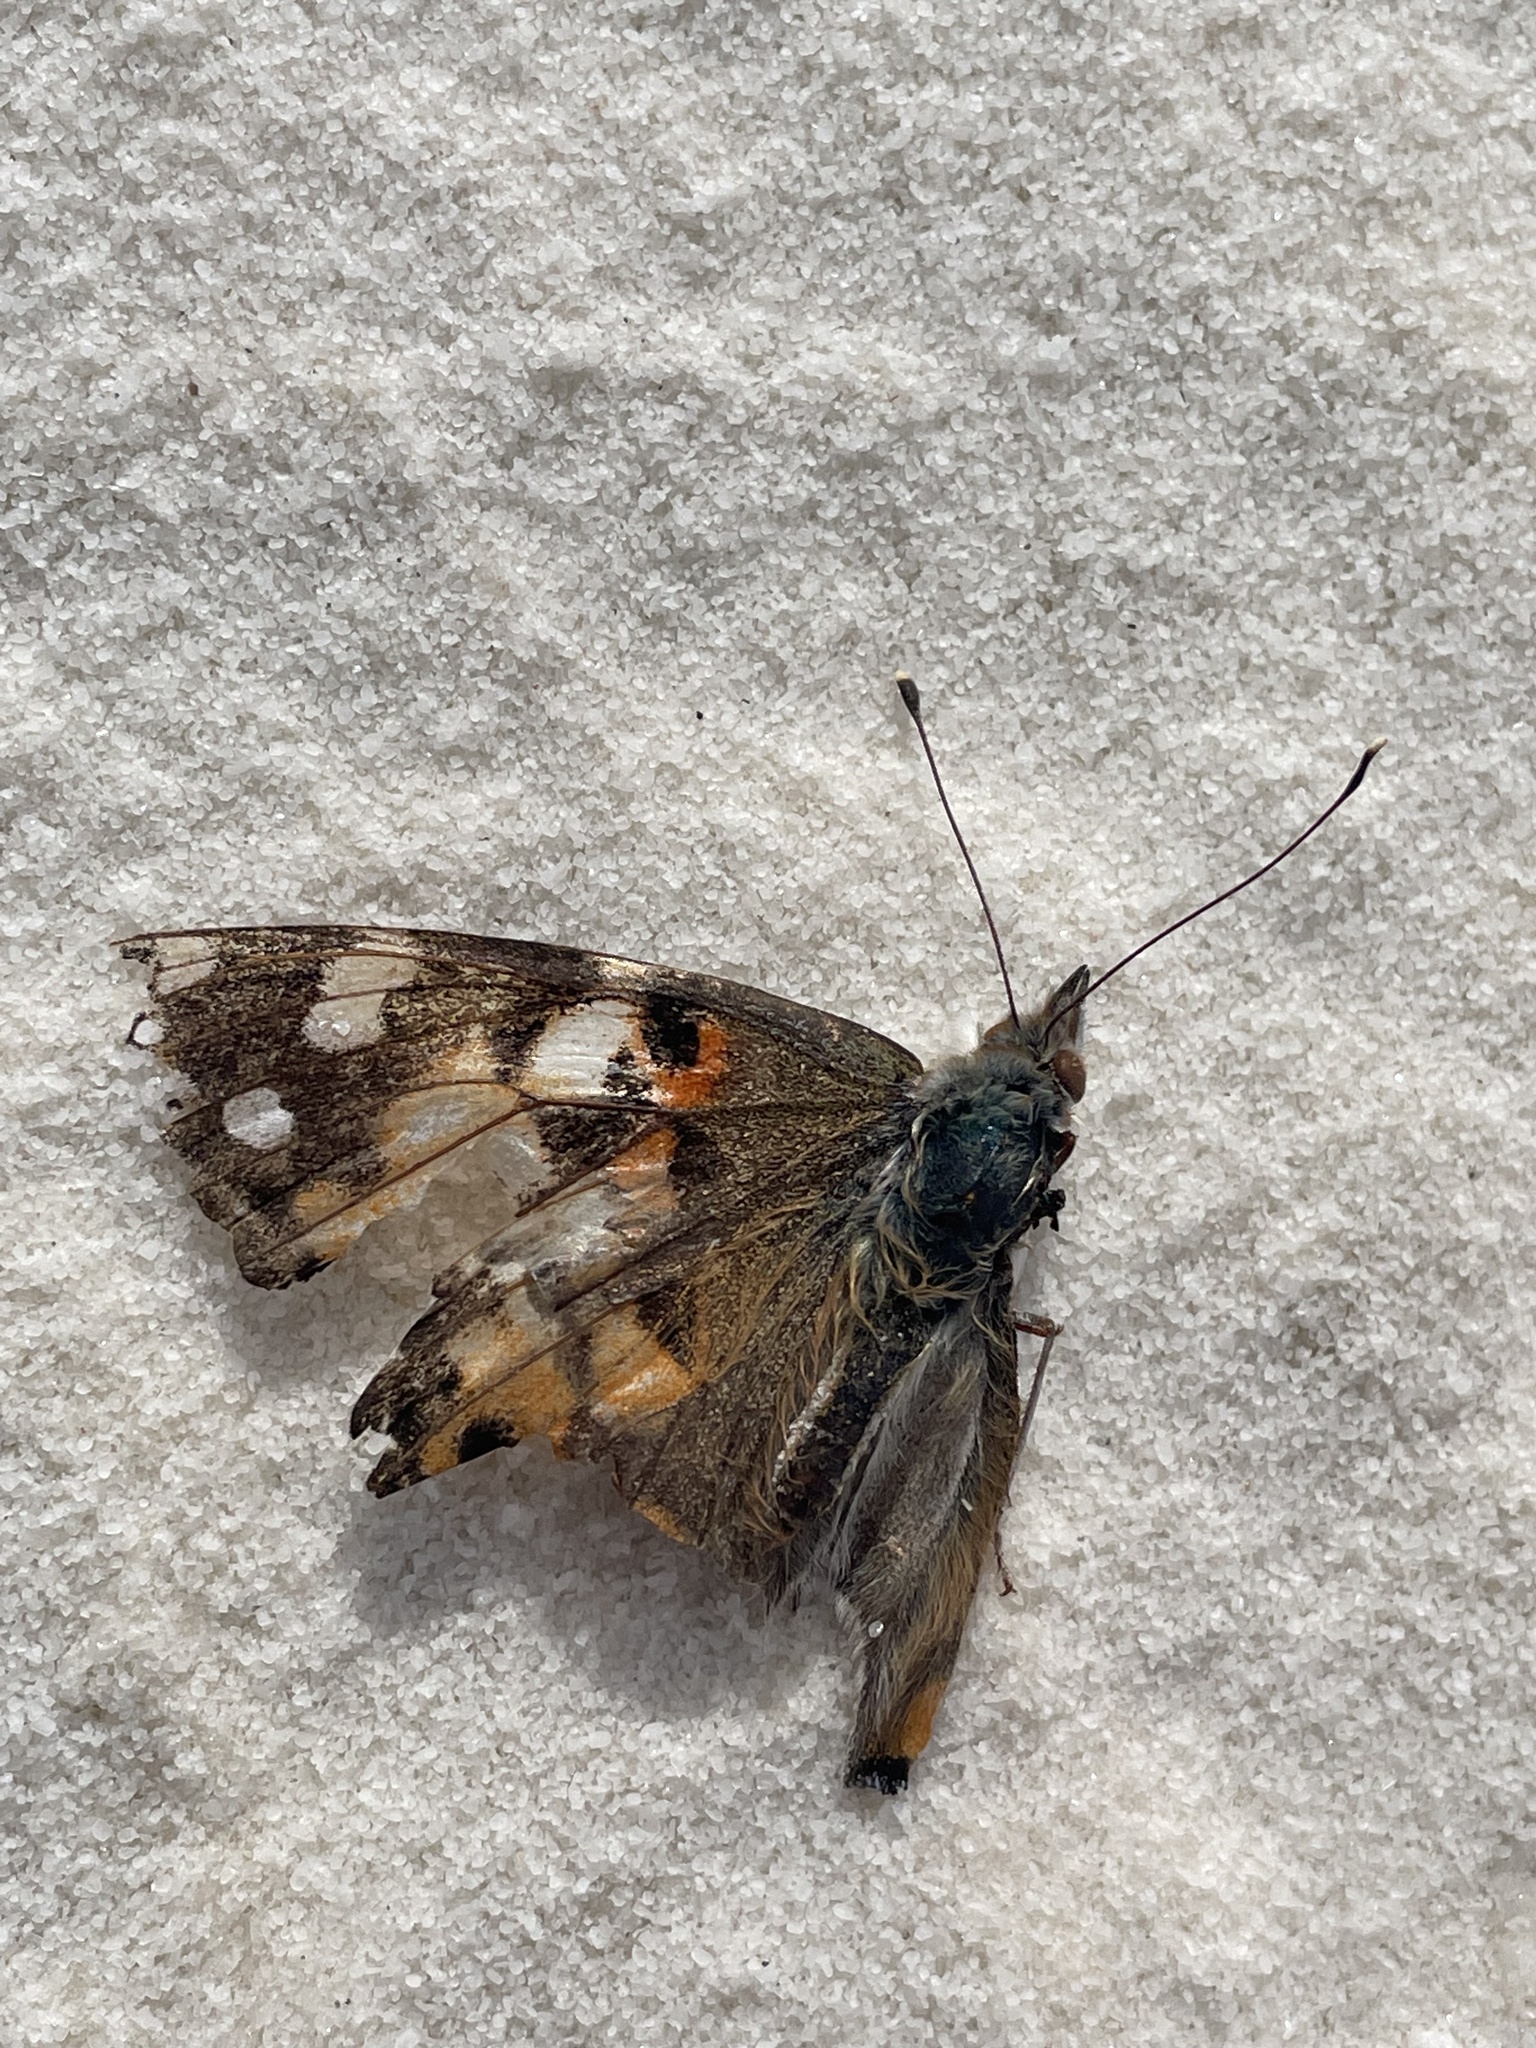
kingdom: Animalia
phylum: Arthropoda
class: Insecta
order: Lepidoptera
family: Nymphalidae
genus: Vanessa
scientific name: Vanessa cardui
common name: Painted lady
